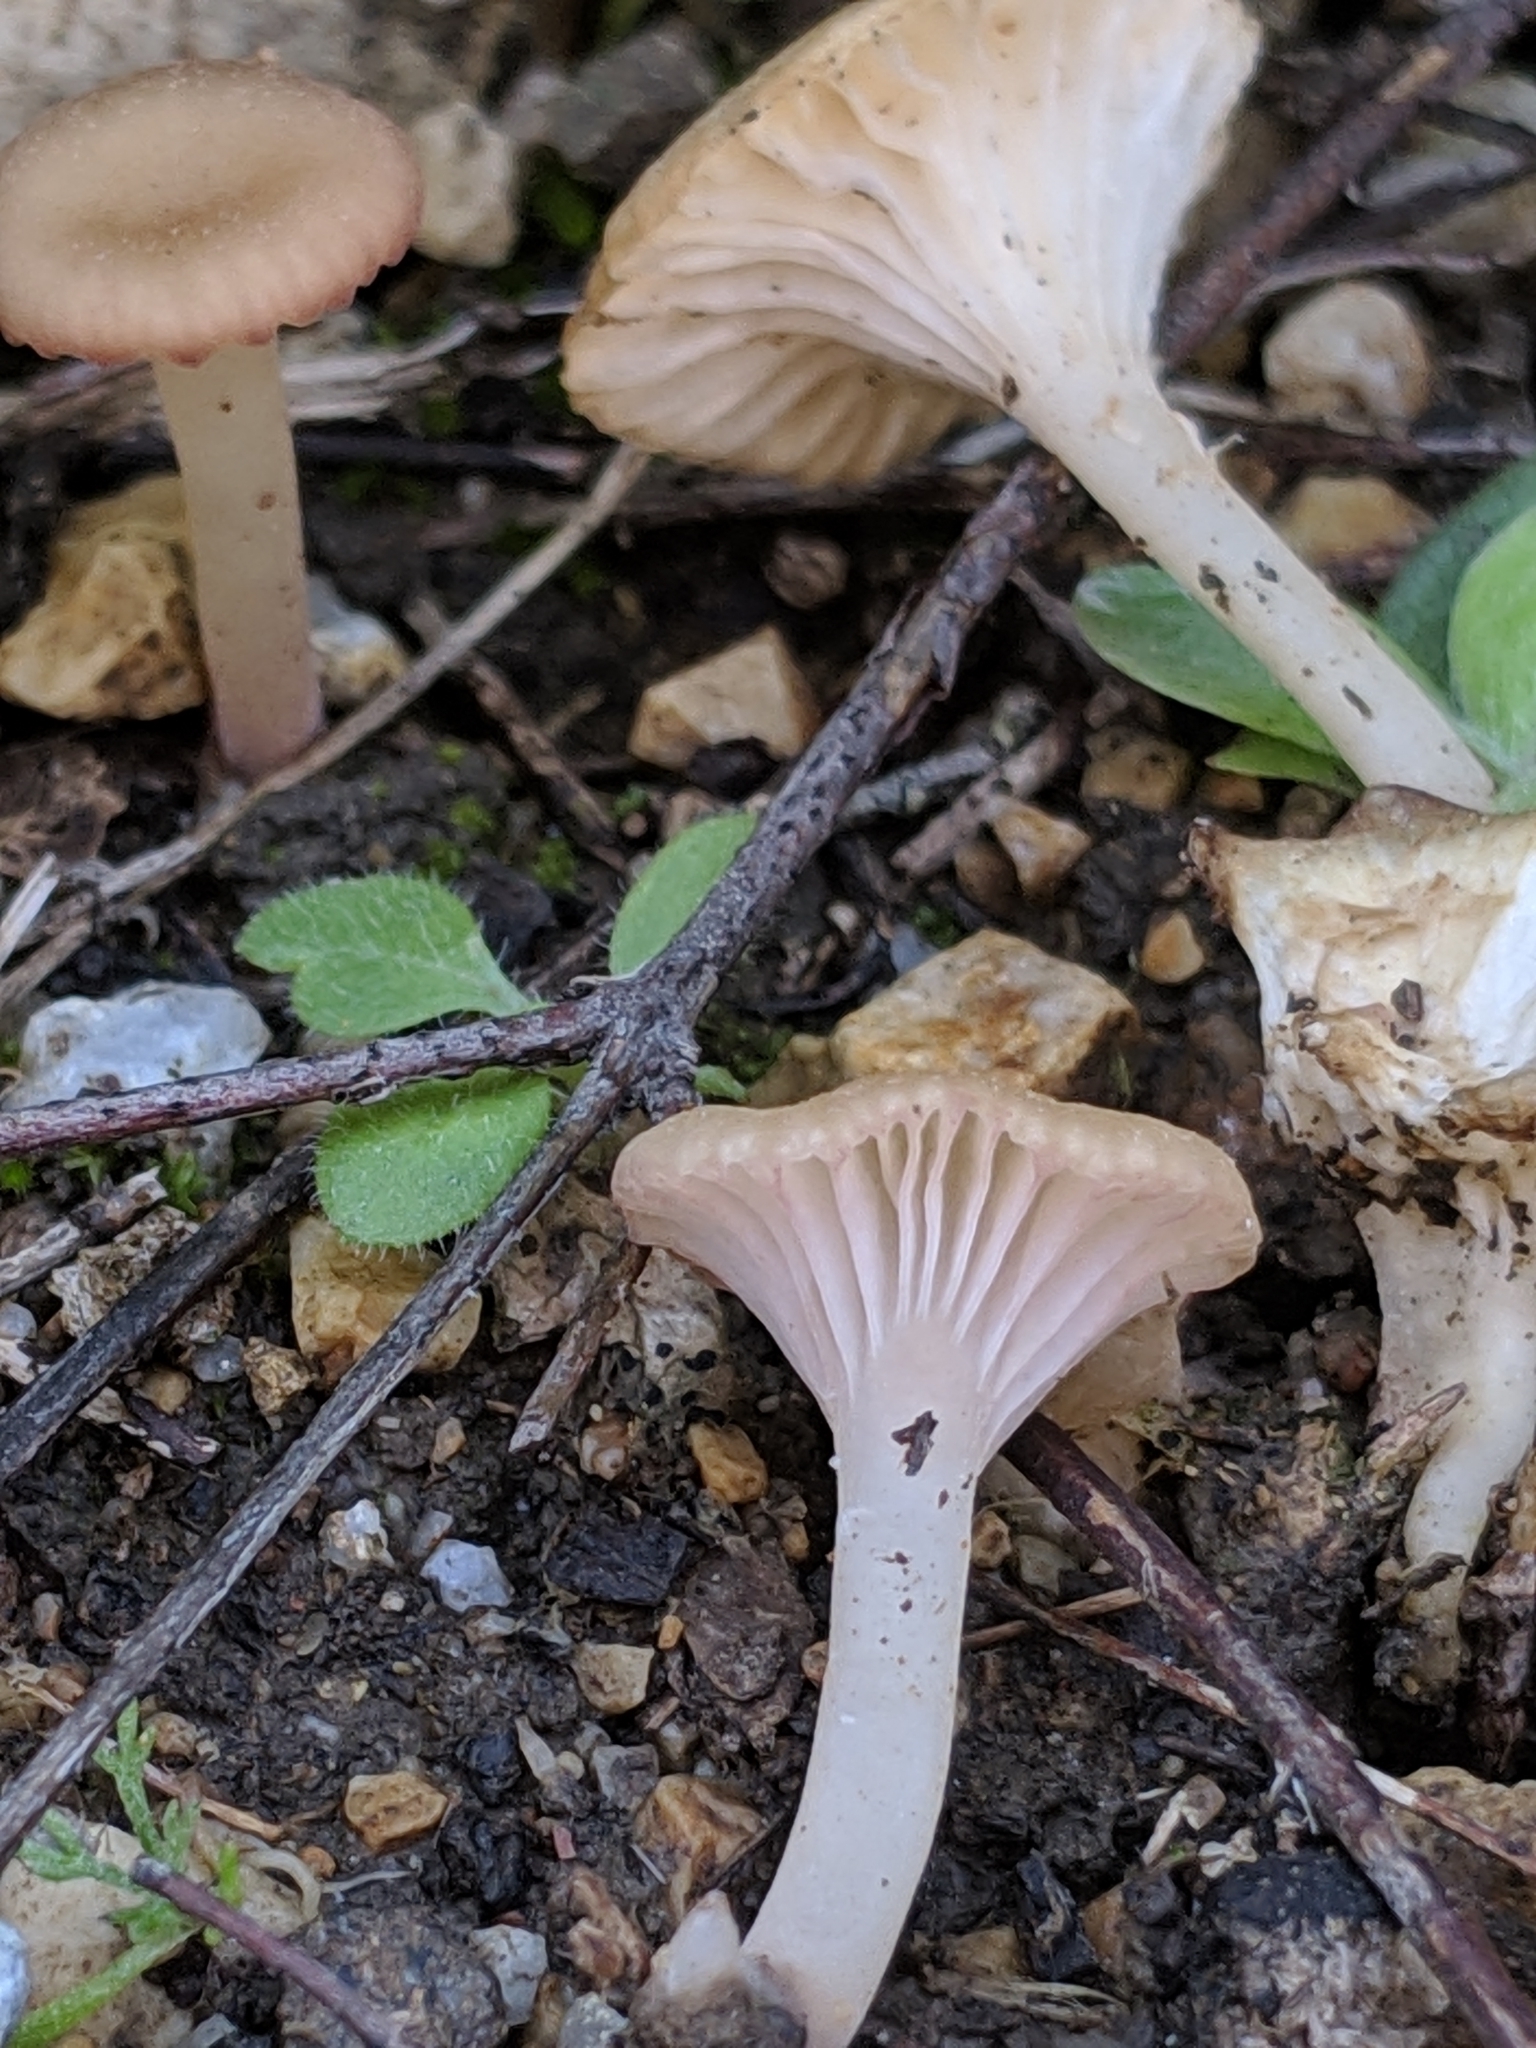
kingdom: Fungi
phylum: Basidiomycota
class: Agaricomycetes
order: Hymenochaetales
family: Rickenellaceae
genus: Contumyces
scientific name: Contumyces rosellus
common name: Rosy navel
